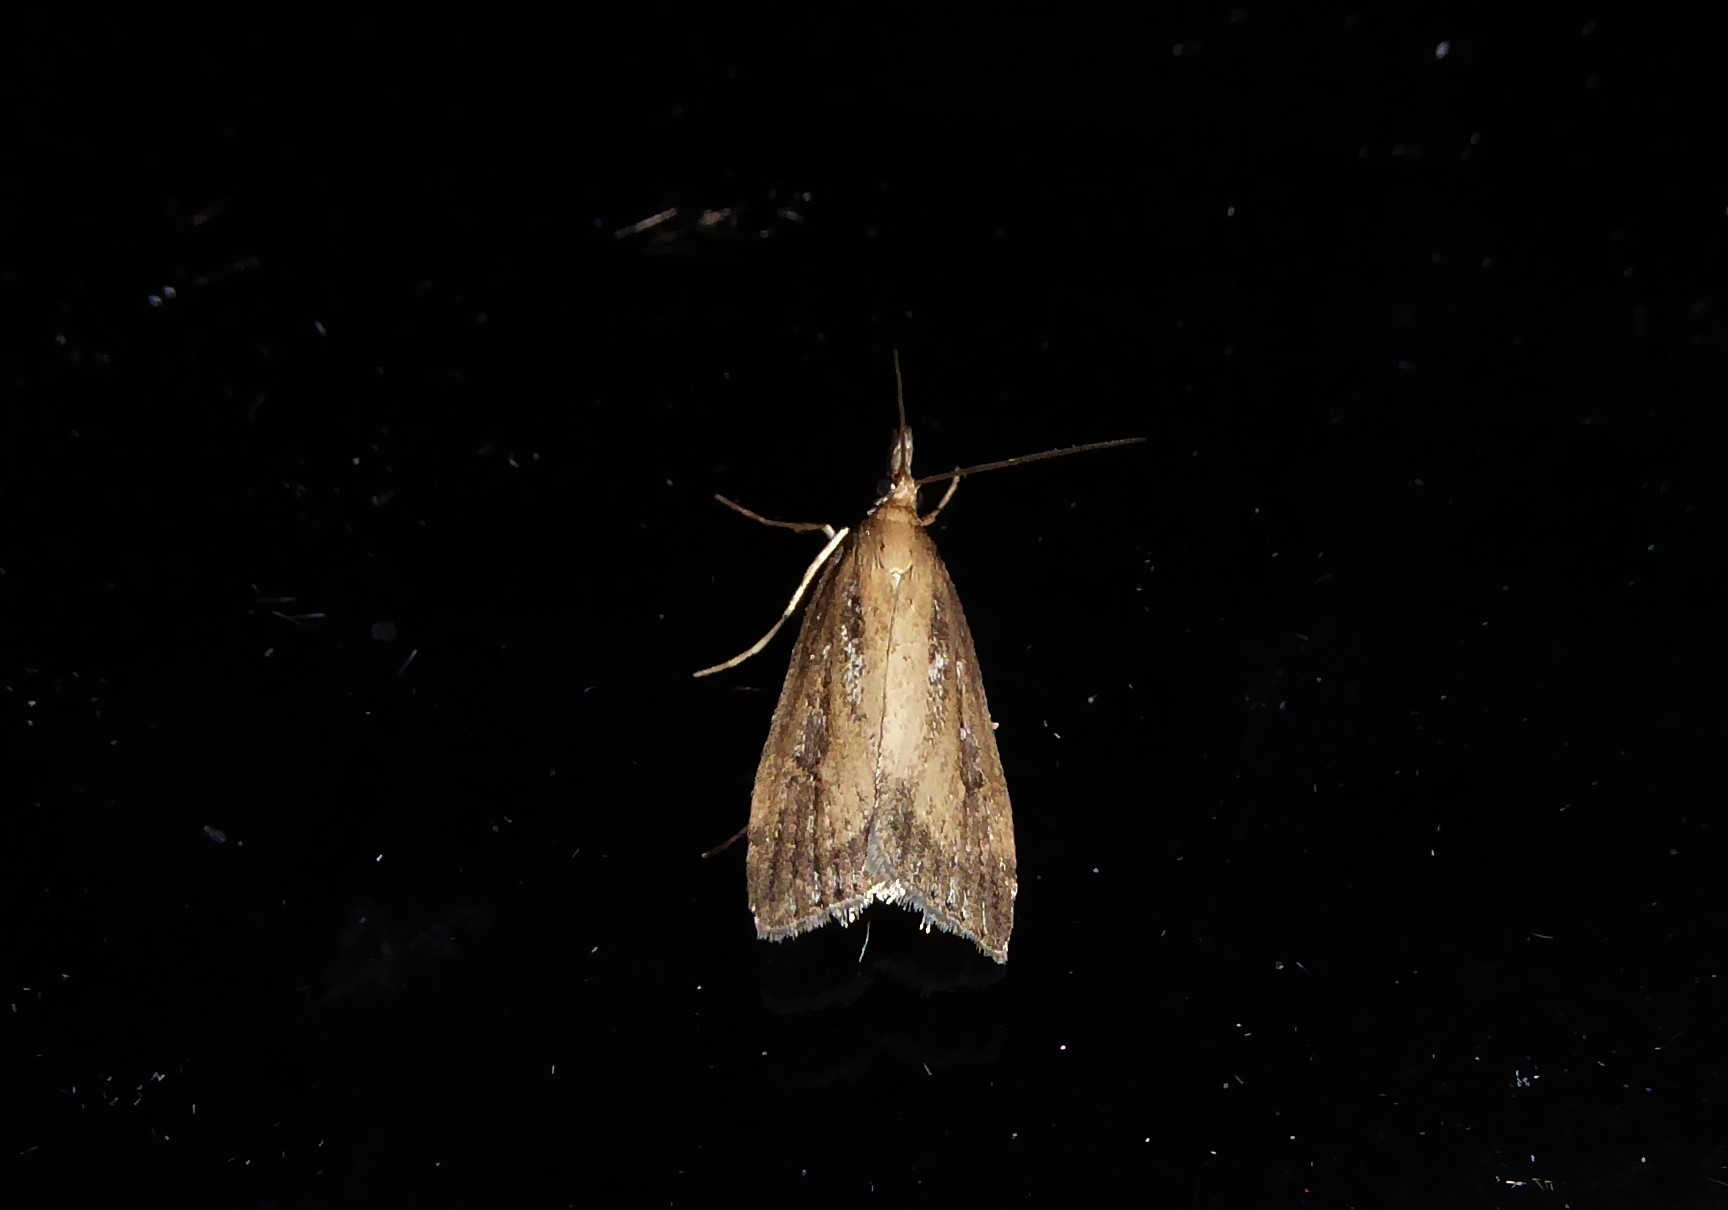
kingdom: Animalia
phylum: Arthropoda
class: Insecta
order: Lepidoptera
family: Crambidae
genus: Eudonia
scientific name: Eudonia octophora
